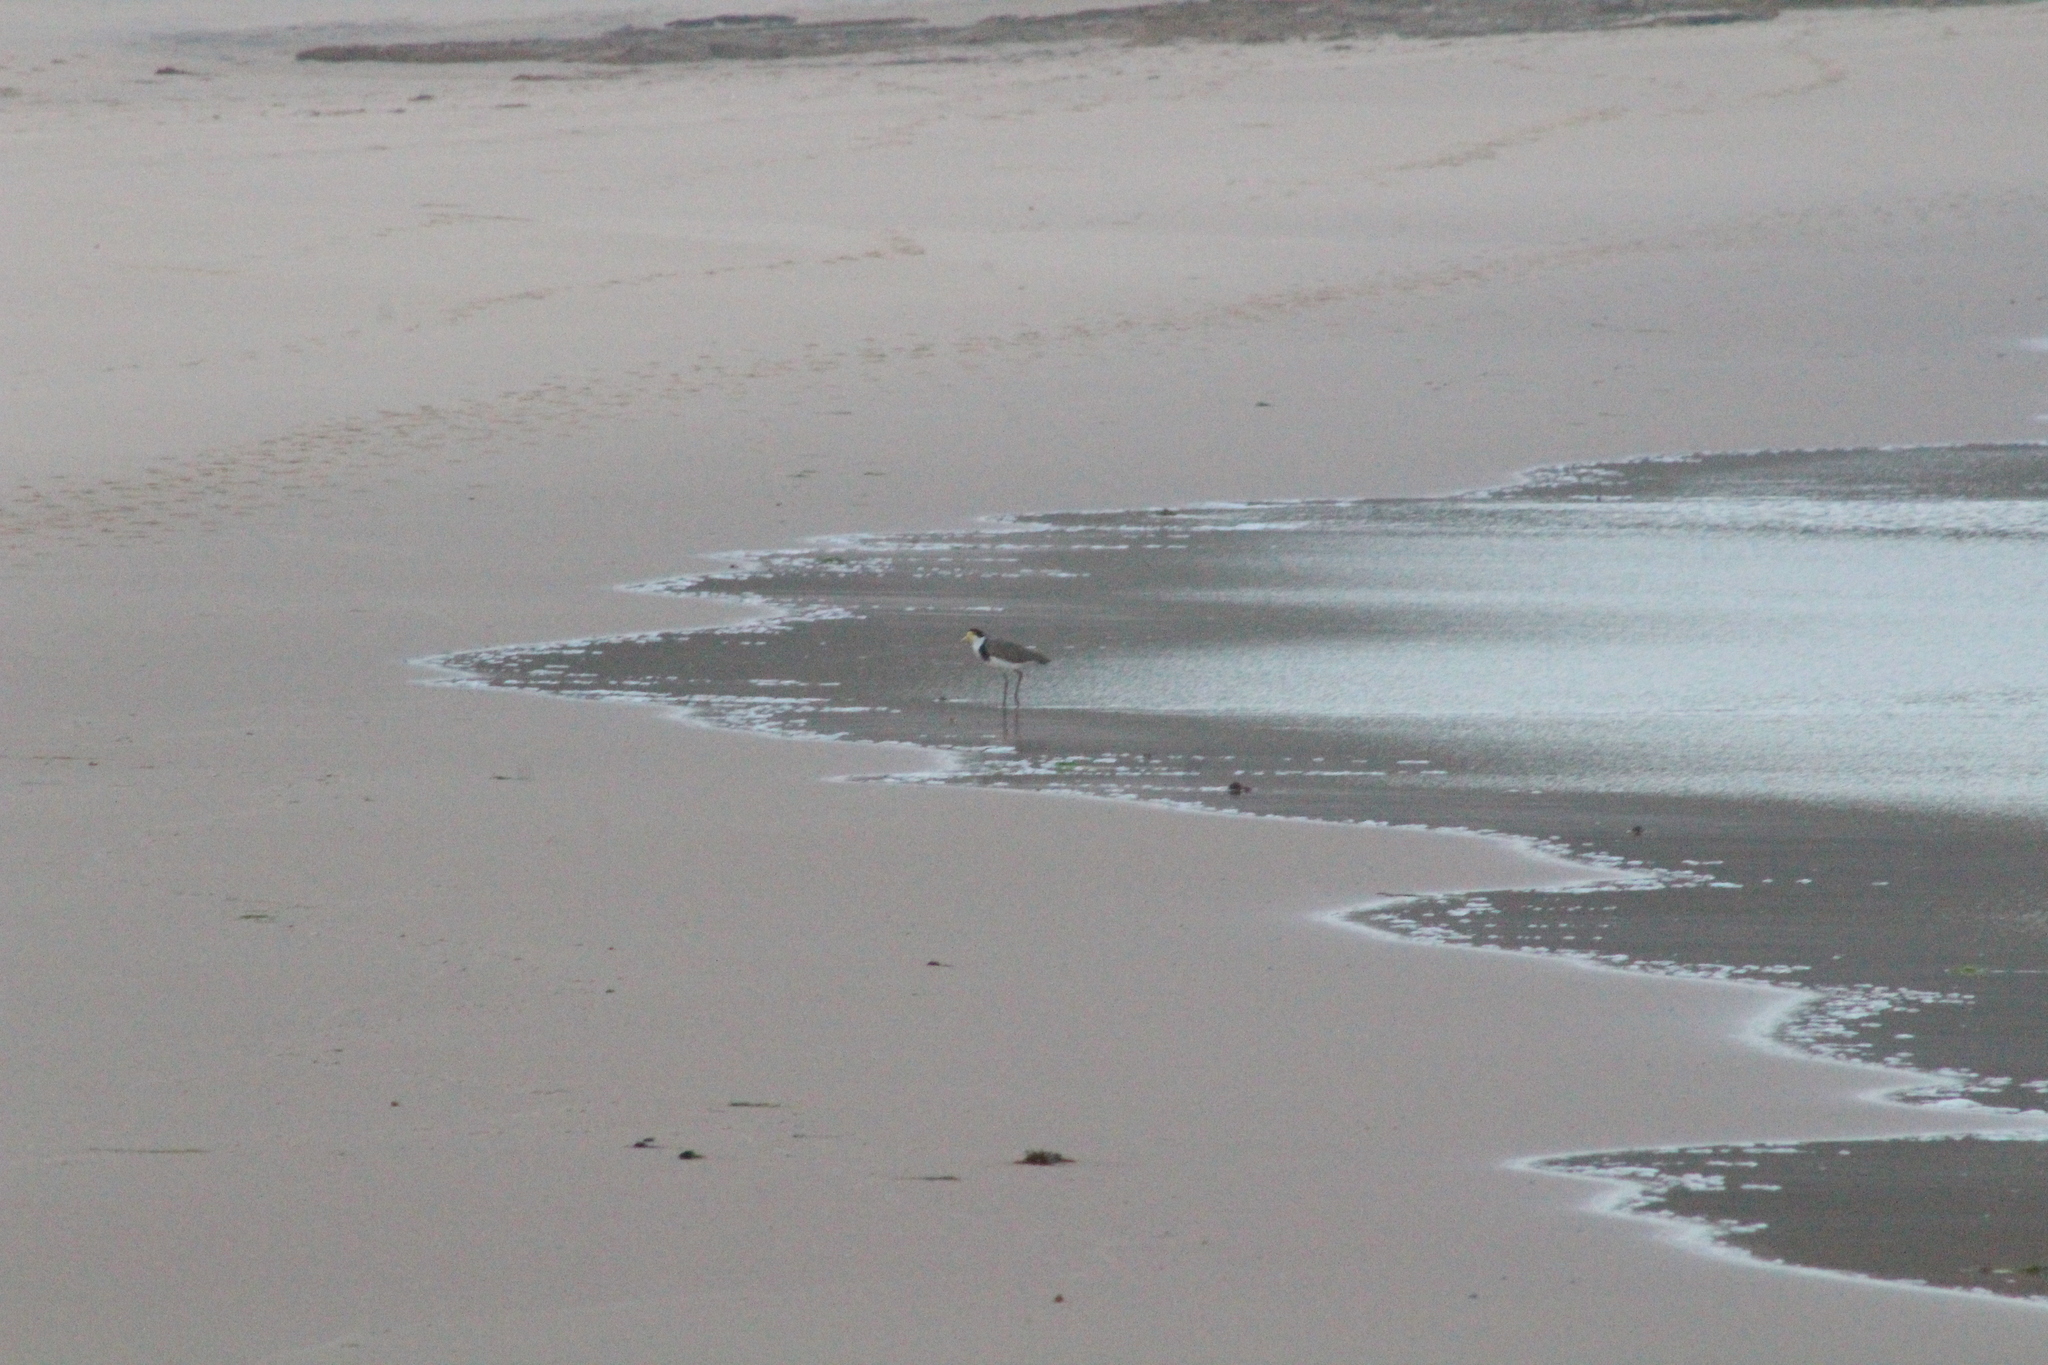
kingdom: Animalia
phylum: Chordata
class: Aves
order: Charadriiformes
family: Charadriidae
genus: Vanellus
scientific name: Vanellus miles
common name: Masked lapwing
